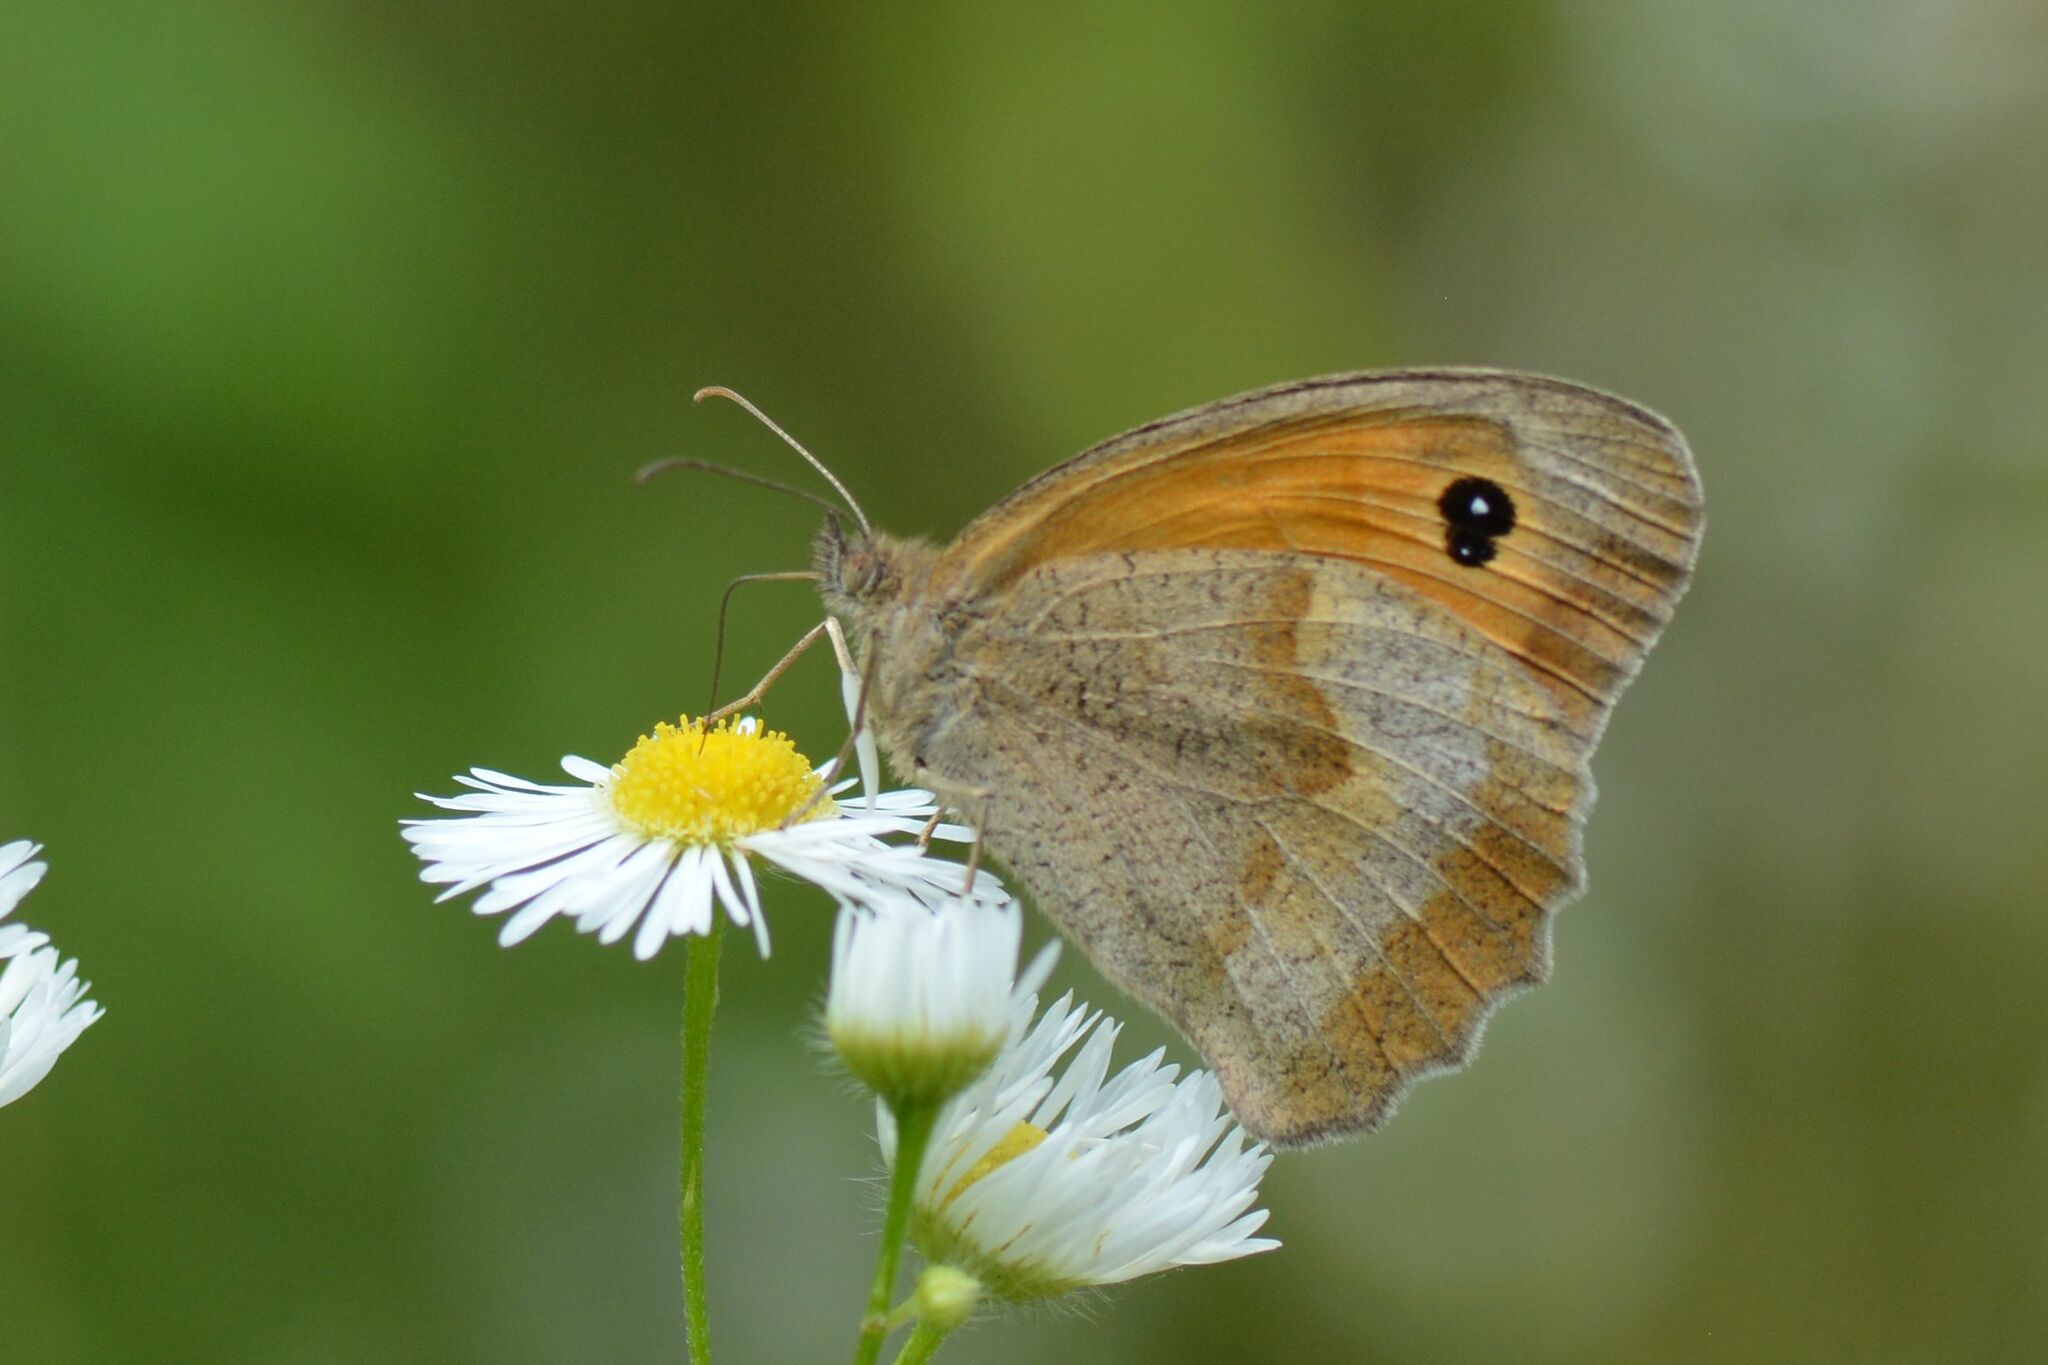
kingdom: Animalia
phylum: Arthropoda
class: Insecta
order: Lepidoptera
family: Nymphalidae
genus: Maniola
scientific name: Maniola jurtina
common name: Meadow brown
